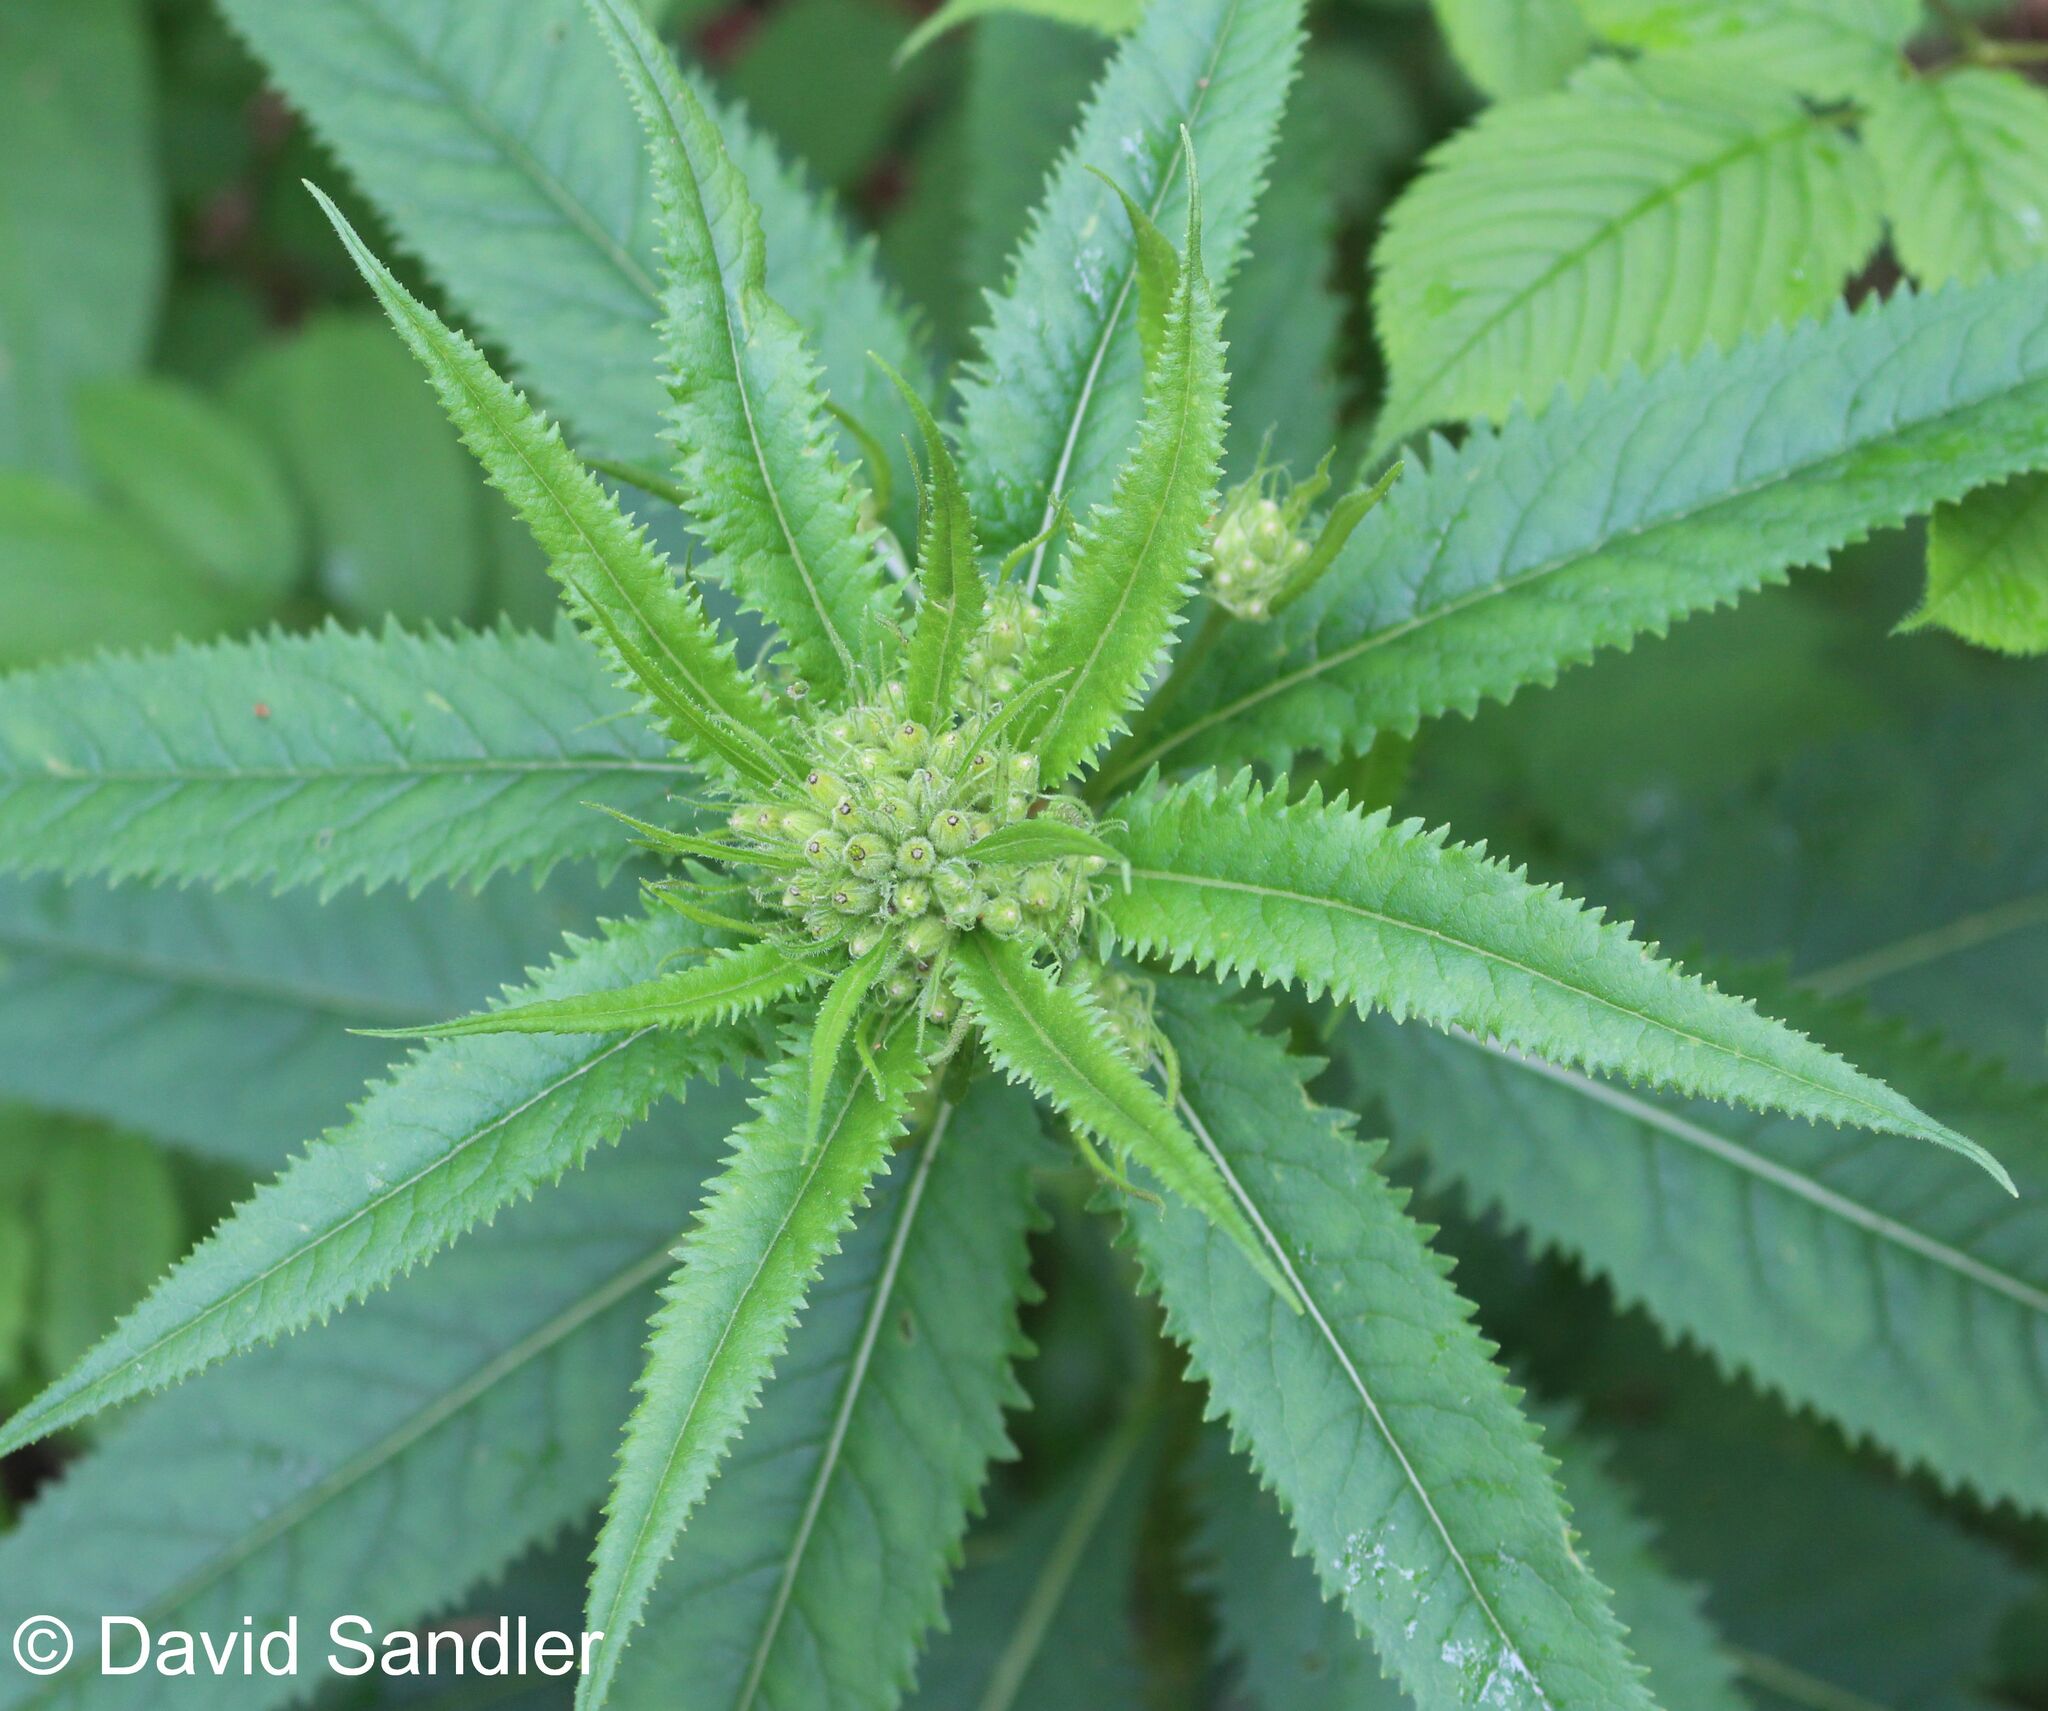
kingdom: Plantae
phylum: Tracheophyta
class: Magnoliopsida
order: Asterales
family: Asteraceae
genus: Senecio
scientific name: Senecio nemorensis
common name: Alpine ragwort
